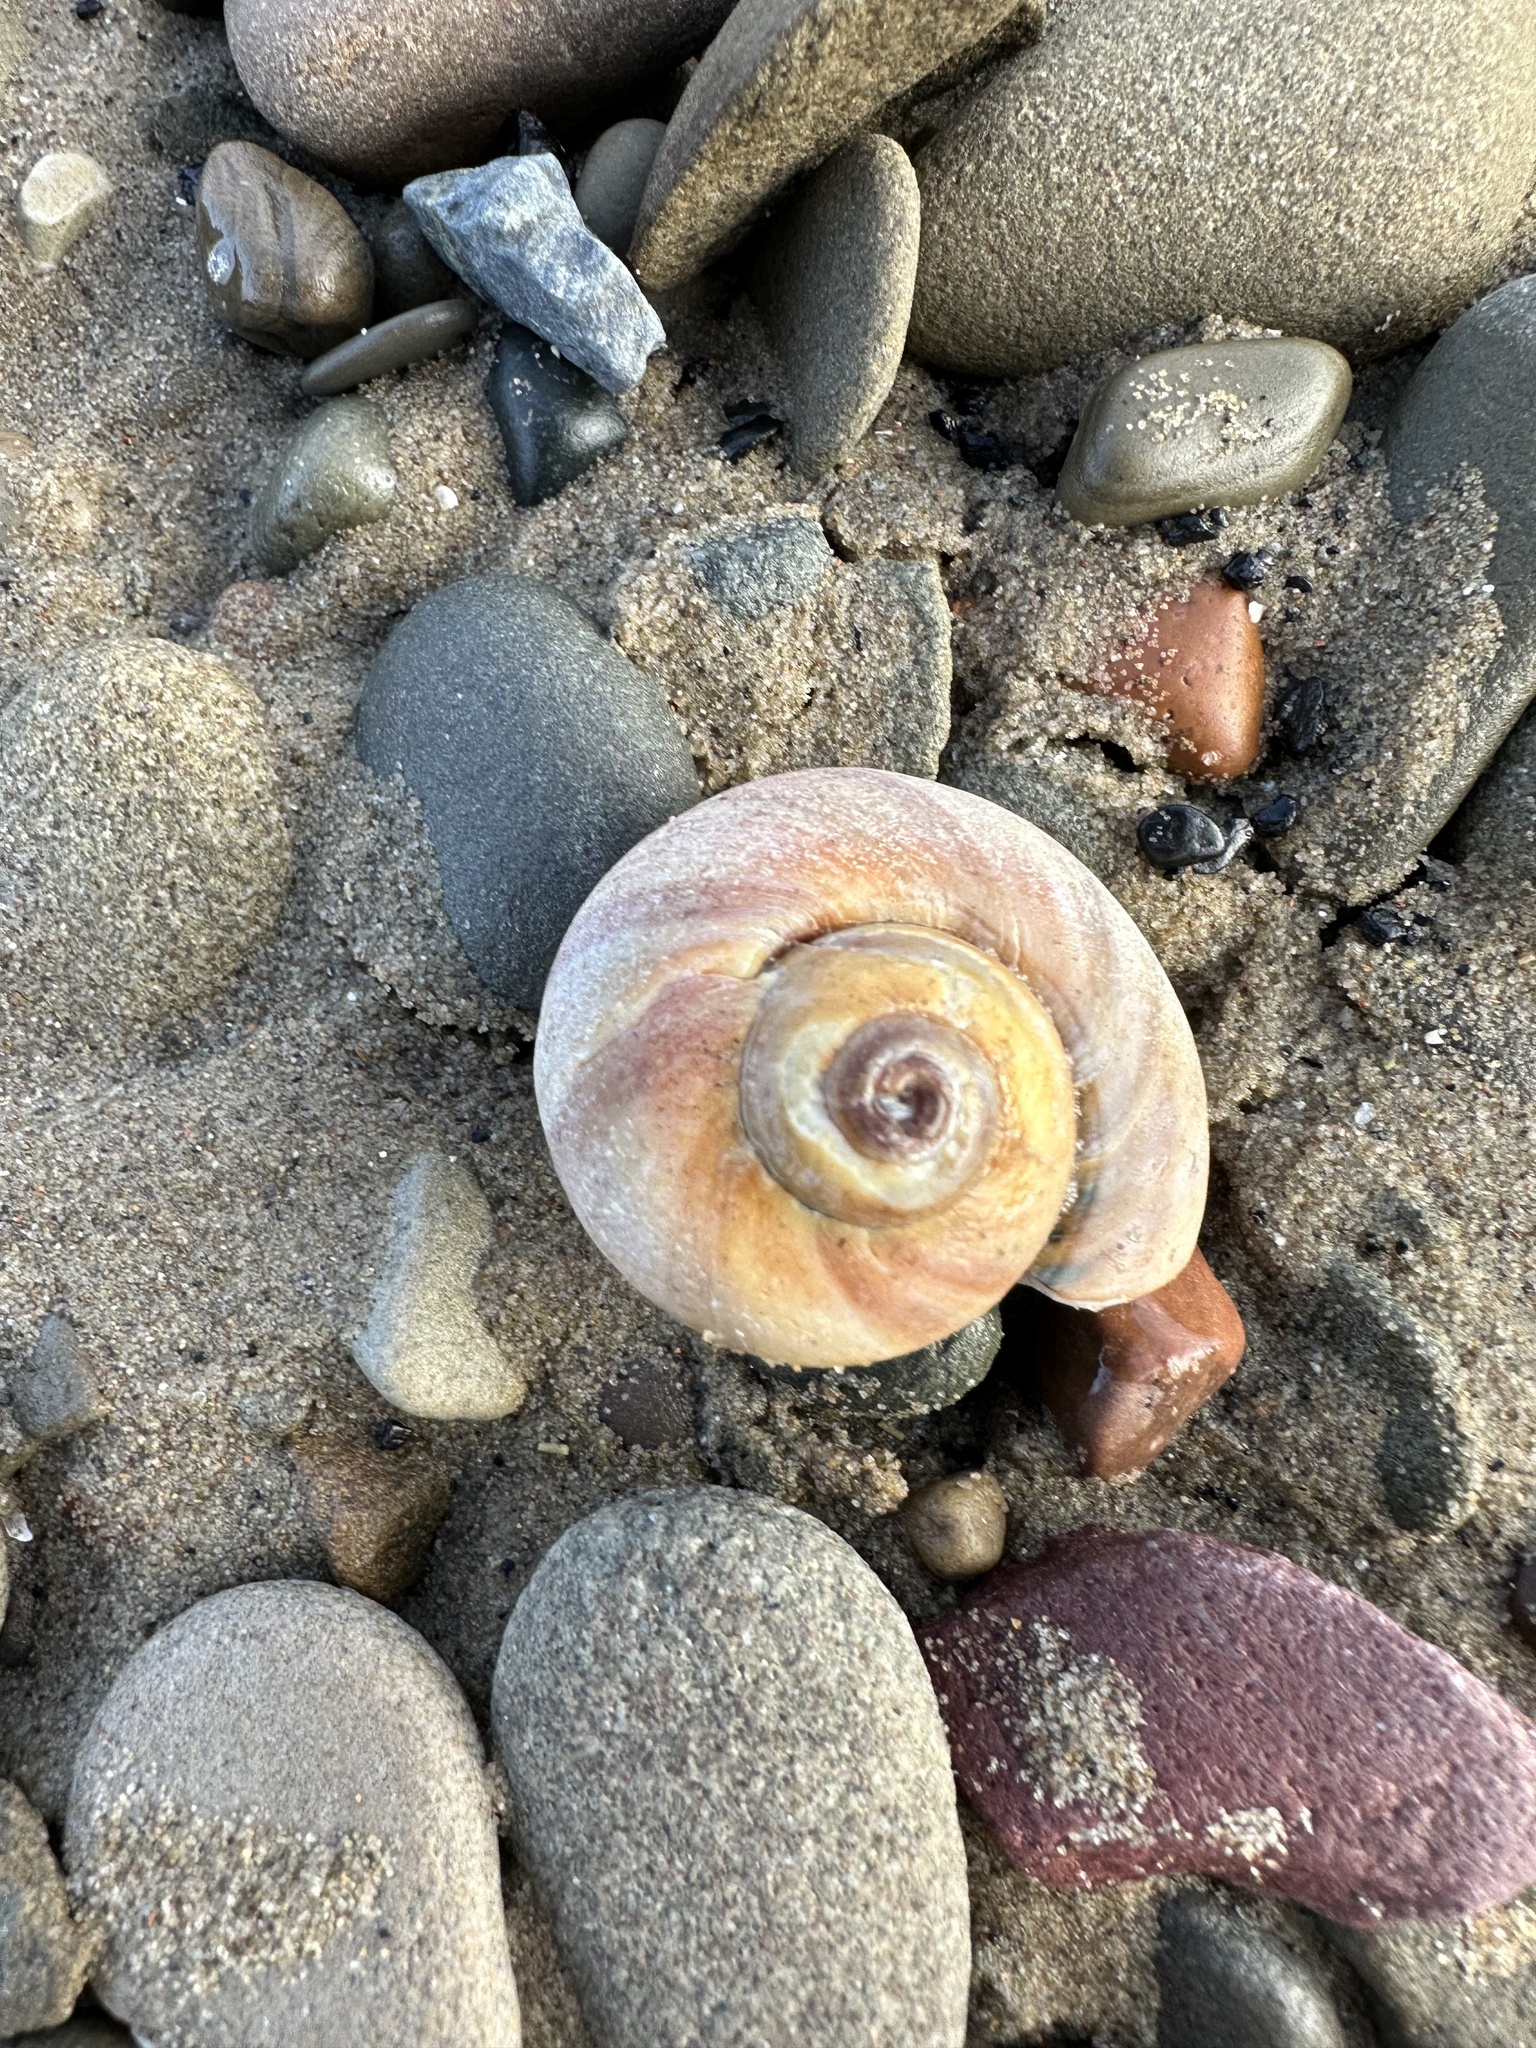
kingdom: Animalia
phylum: Mollusca
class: Gastropoda
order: Littorinimorpha
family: Naticidae
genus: Euspira
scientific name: Euspira heros
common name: Common northern moonsnail
